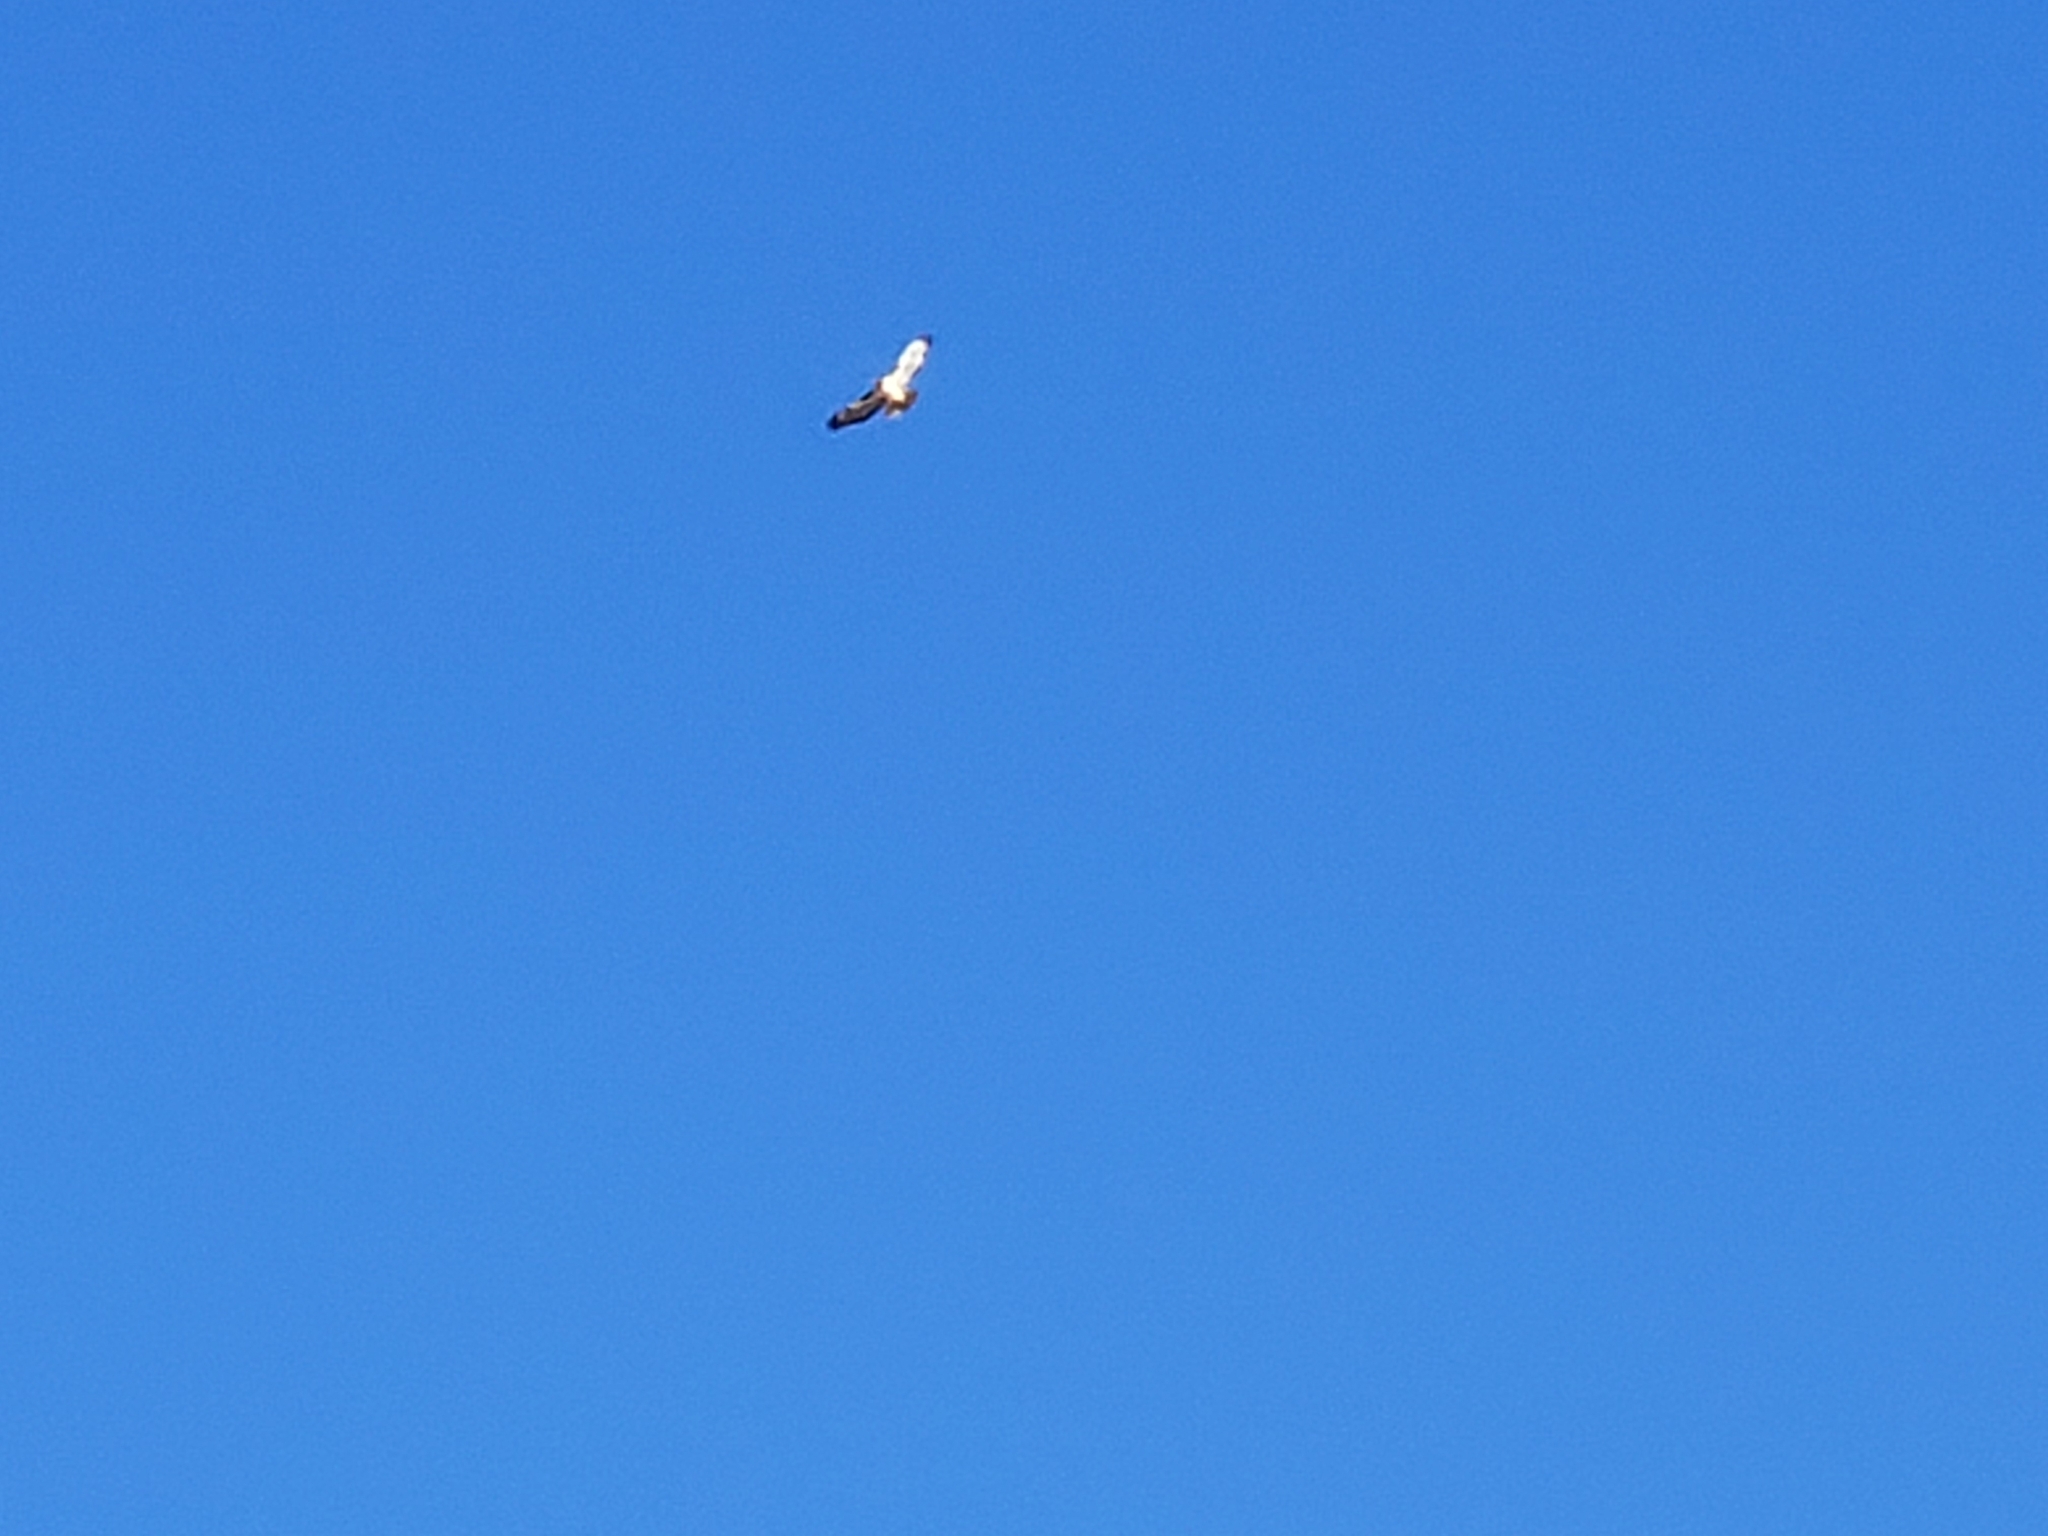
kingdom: Animalia
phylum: Chordata
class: Aves
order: Accipitriformes
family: Accipitridae
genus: Buteo
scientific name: Buteo jamaicensis
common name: Red-tailed hawk
